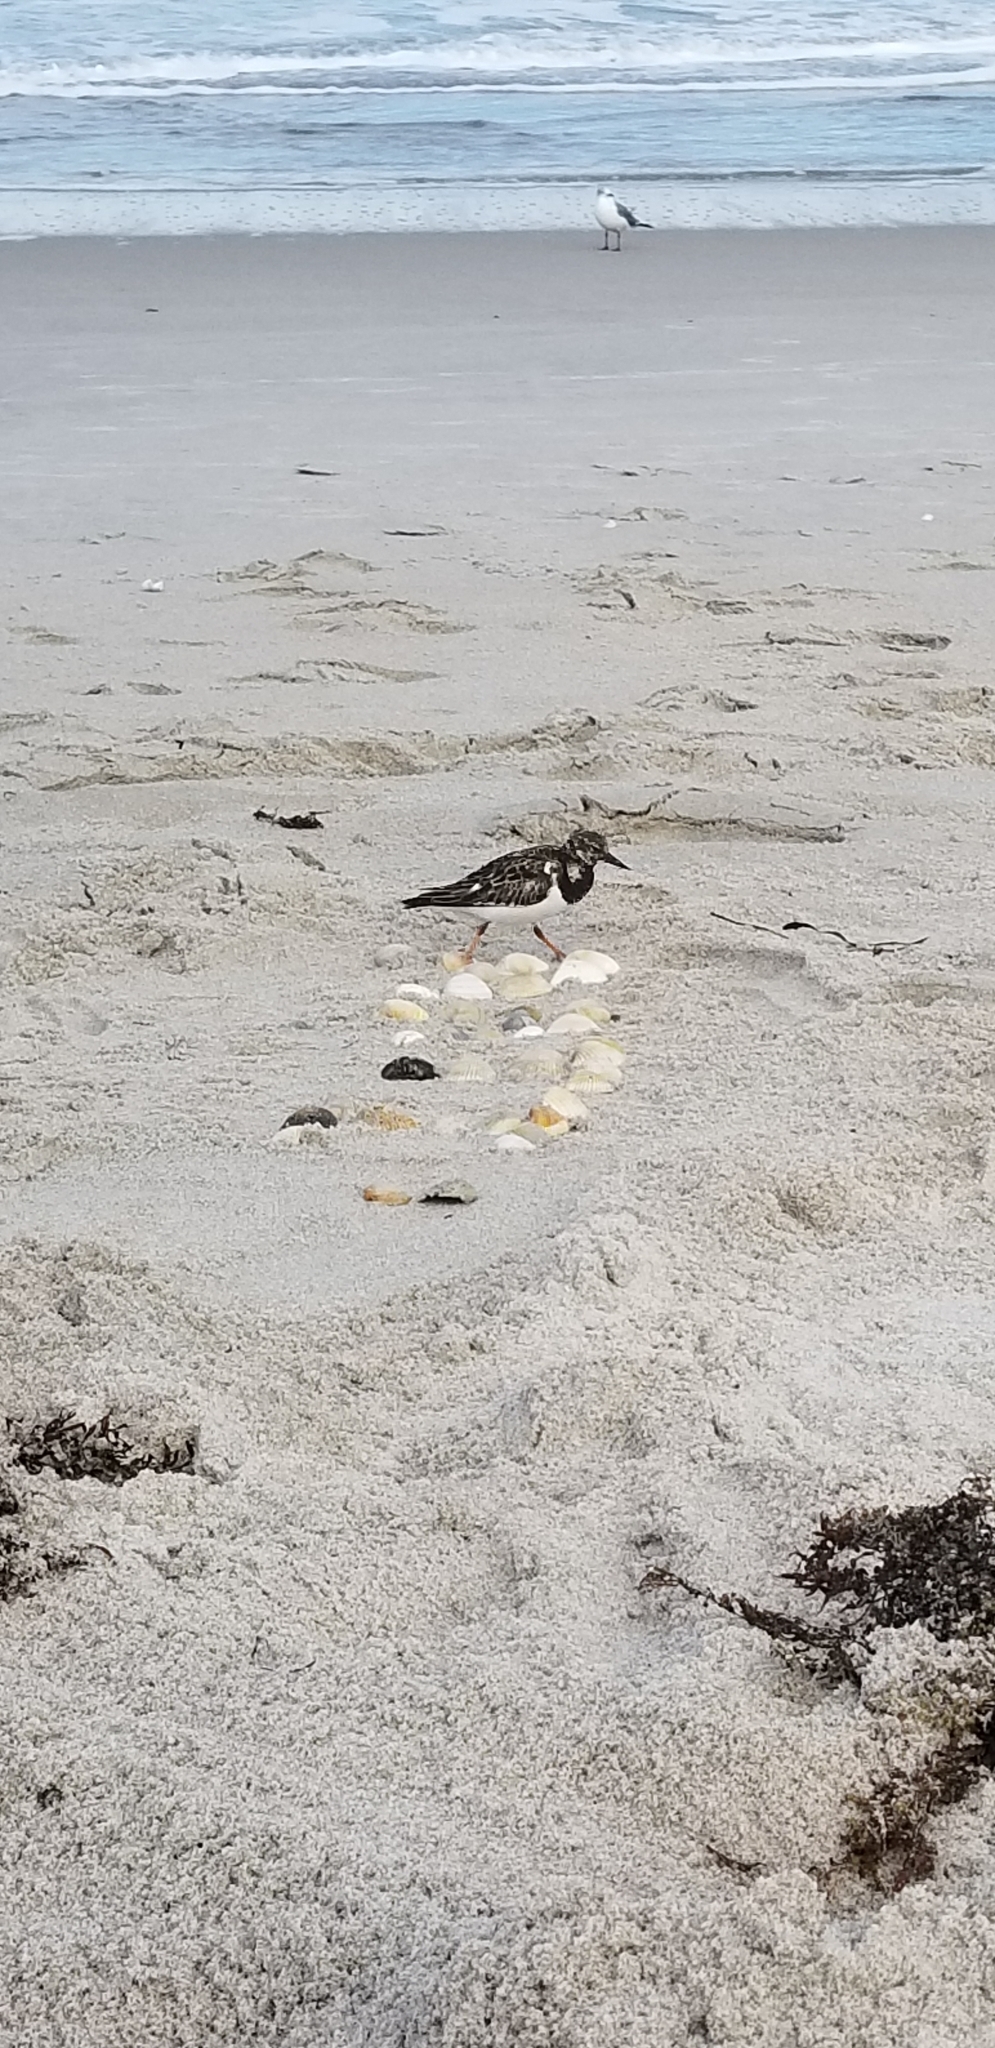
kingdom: Animalia
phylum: Chordata
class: Aves
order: Charadriiformes
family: Scolopacidae
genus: Arenaria
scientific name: Arenaria interpres
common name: Ruddy turnstone
